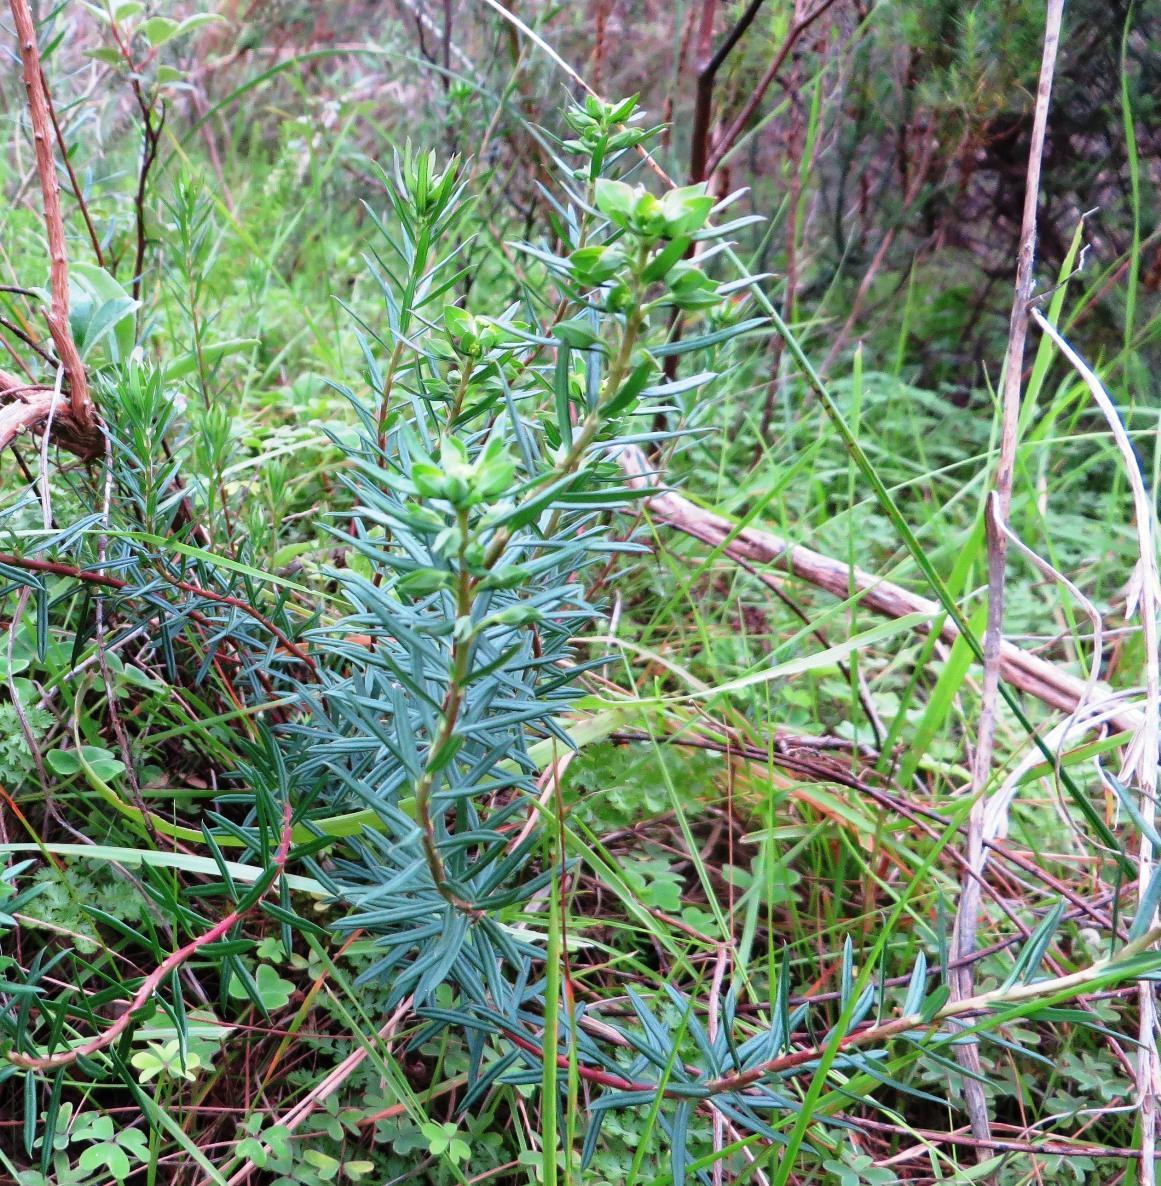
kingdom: Plantae
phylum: Tracheophyta
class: Magnoliopsida
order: Malpighiales
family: Euphorbiaceae
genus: Euphorbia
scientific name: Euphorbia genistoides
